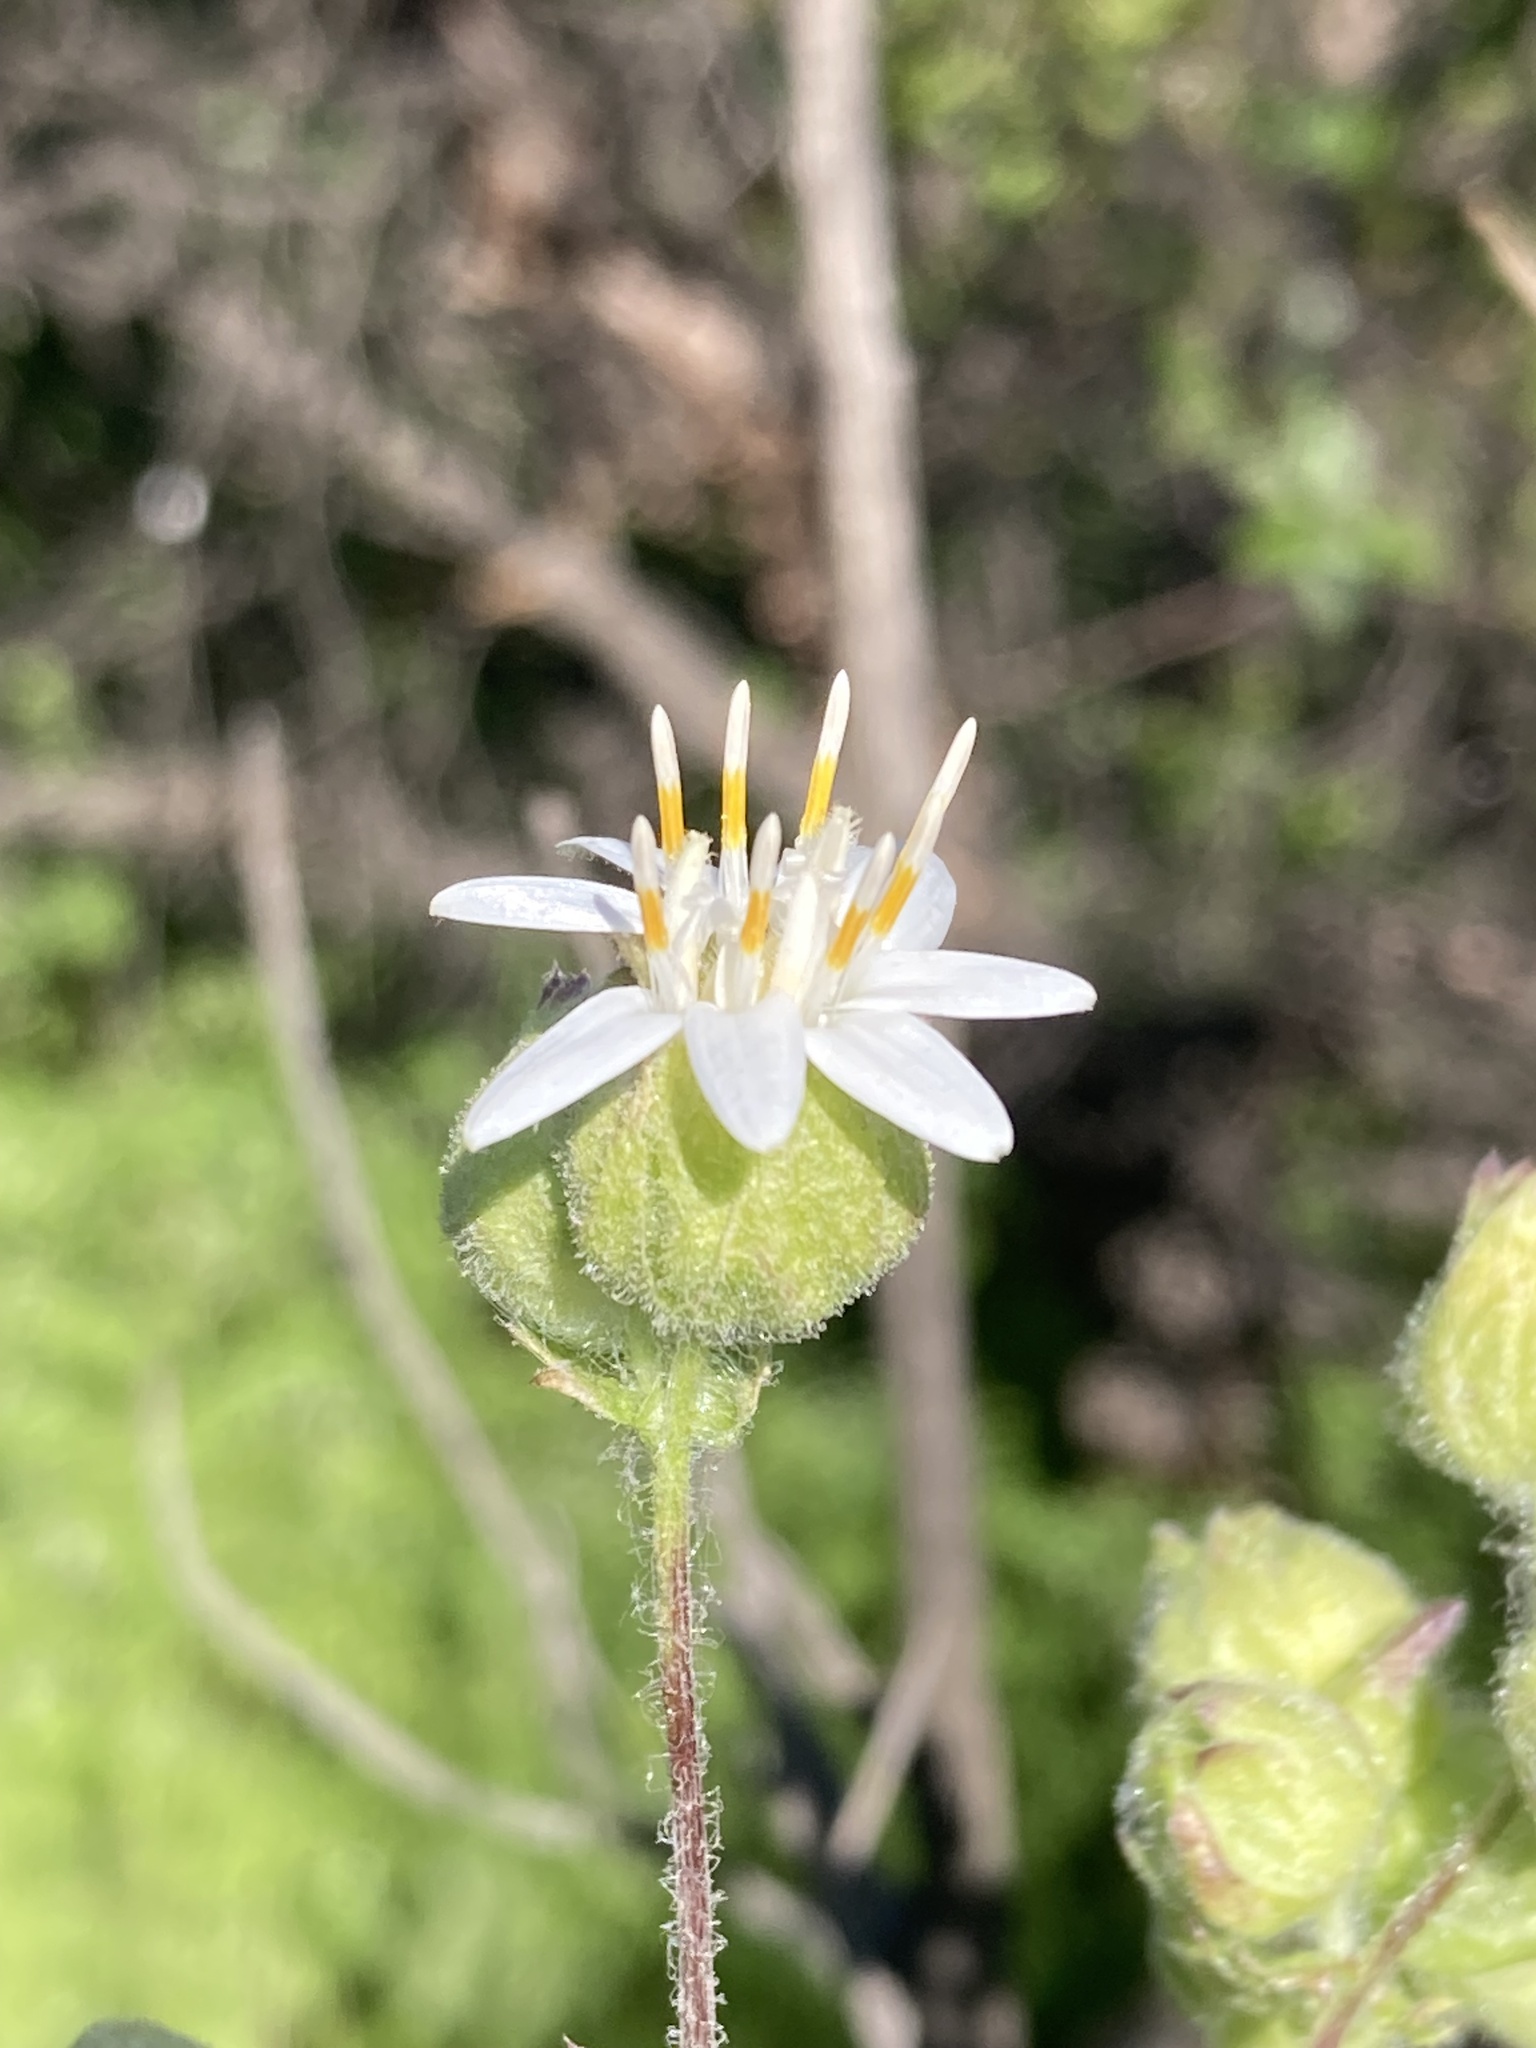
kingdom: Plantae
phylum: Tracheophyta
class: Magnoliopsida
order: Asterales
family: Asteraceae
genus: Moscharia
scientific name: Moscharia pinnatifida
